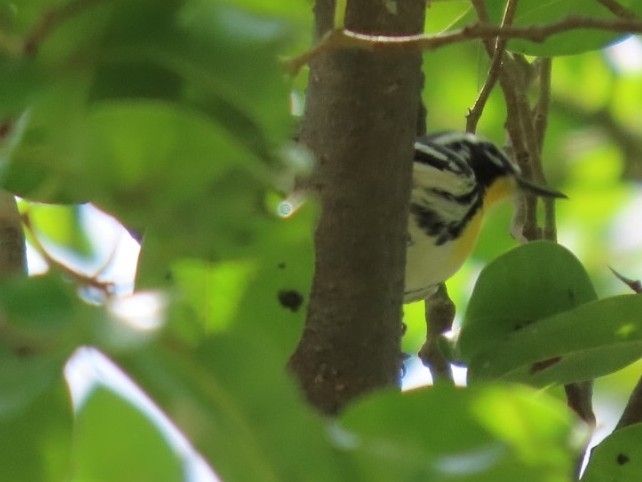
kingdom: Animalia
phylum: Chordata
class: Aves
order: Passeriformes
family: Parulidae
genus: Setophaga
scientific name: Setophaga dominica
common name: Yellow-throated warbler
